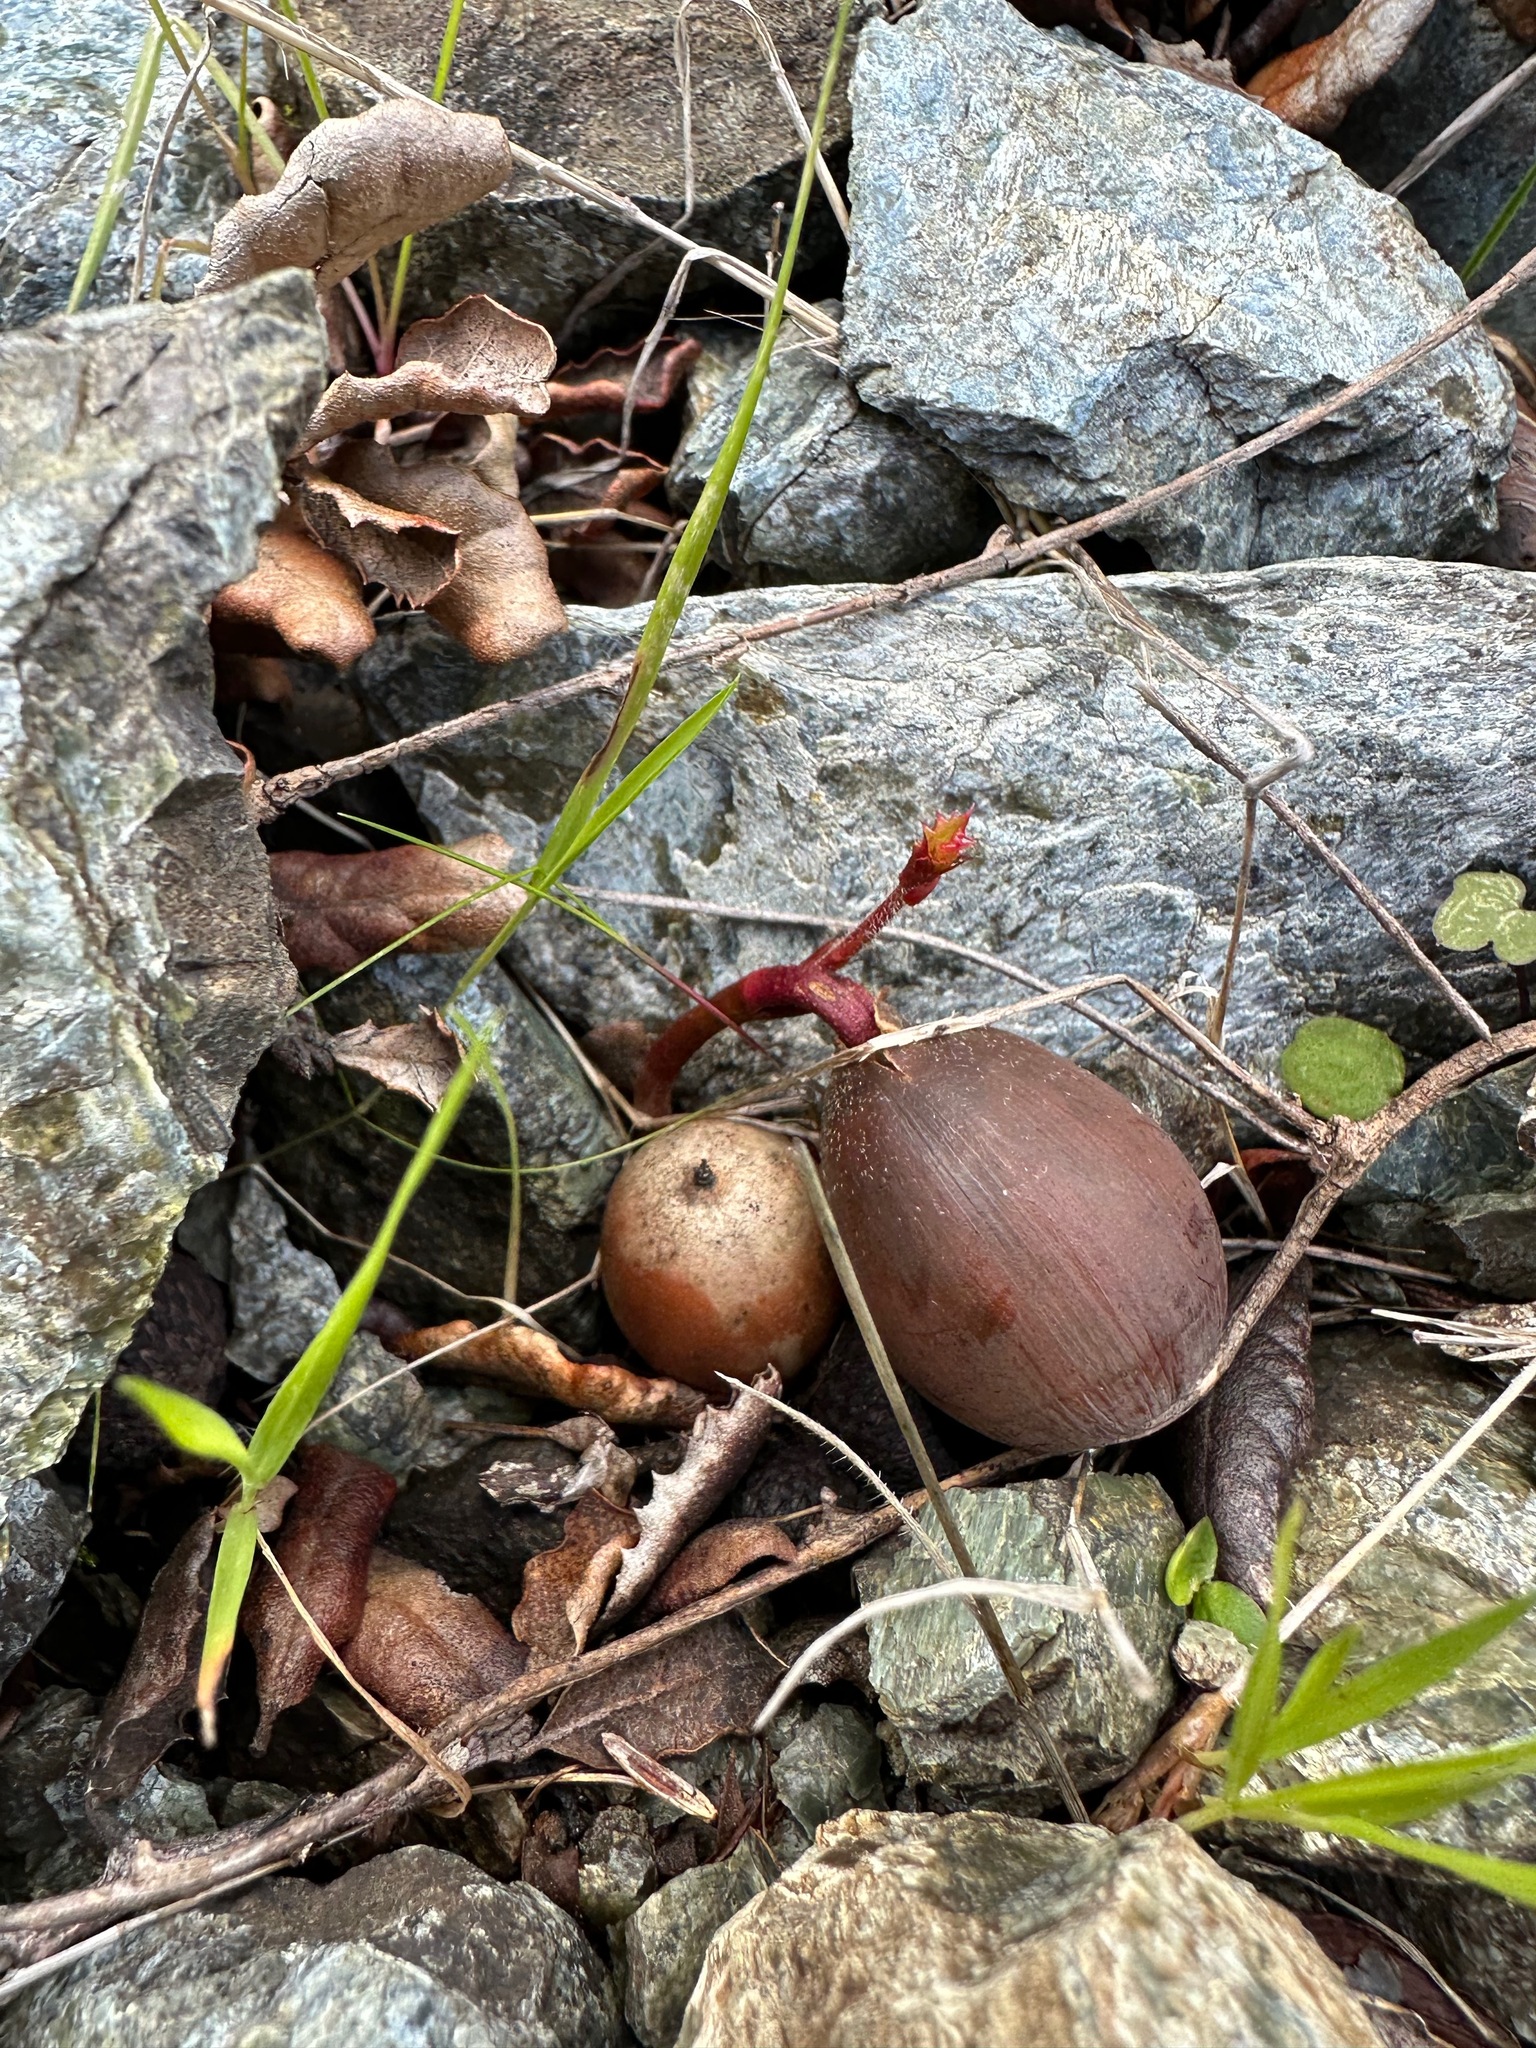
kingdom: Plantae
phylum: Tracheophyta
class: Magnoliopsida
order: Fagales
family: Fagaceae
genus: Quercus
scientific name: Quercus durata
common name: Leather oak
